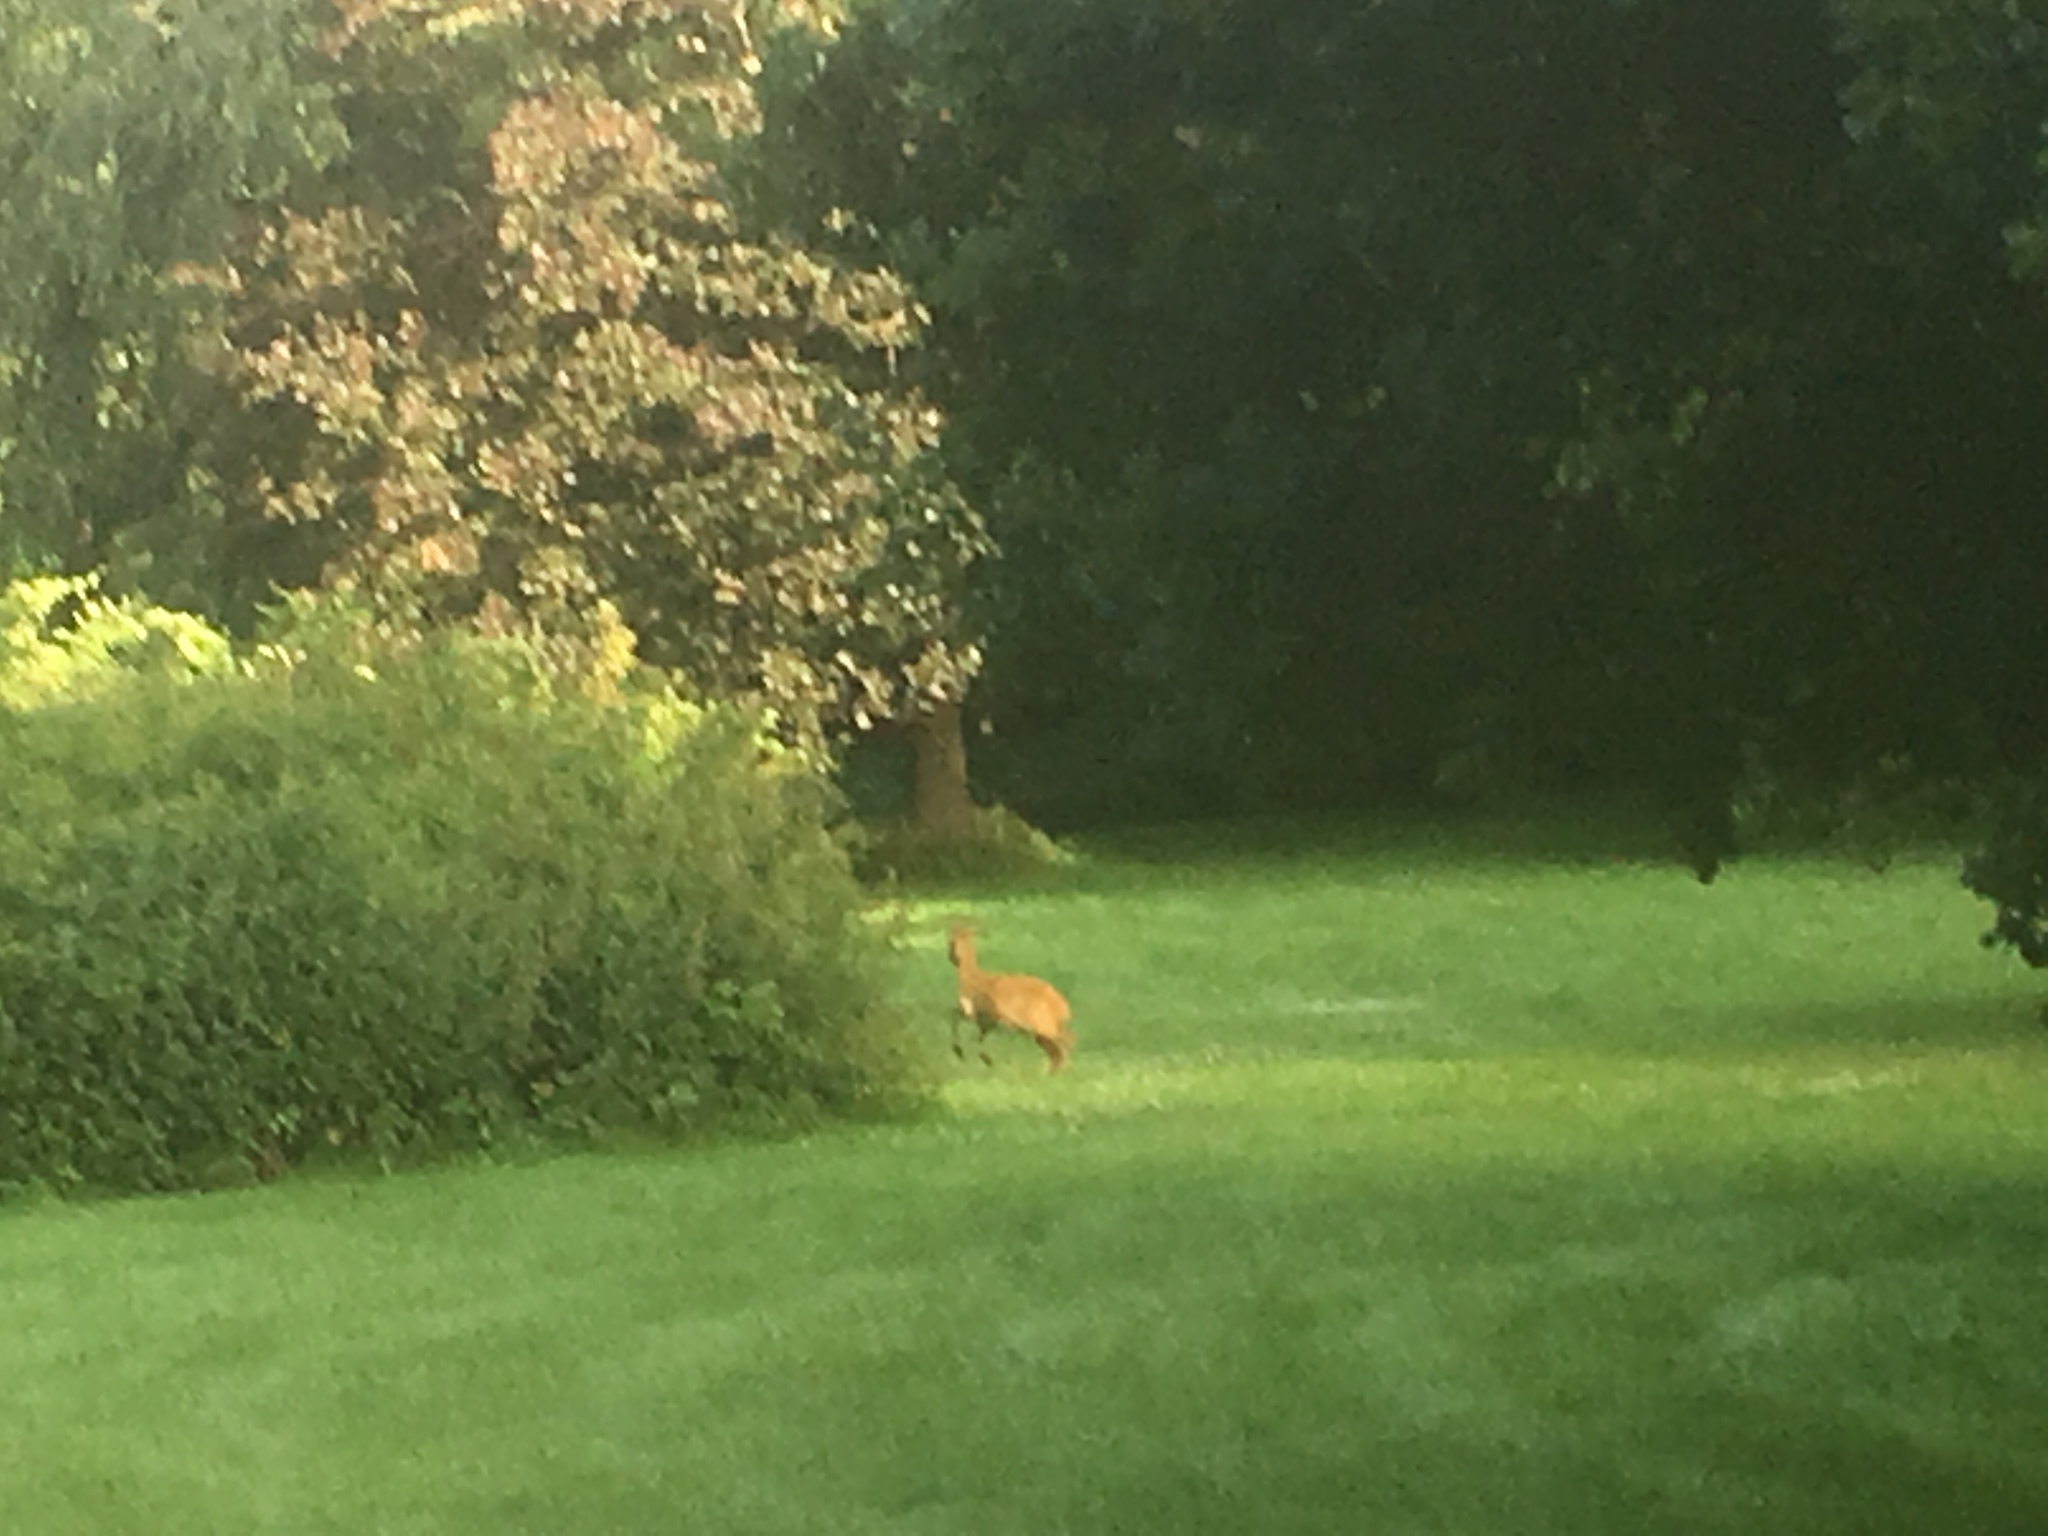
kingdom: Animalia
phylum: Chordata
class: Mammalia
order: Artiodactyla
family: Cervidae
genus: Capreolus
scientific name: Capreolus capreolus
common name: Western roe deer
